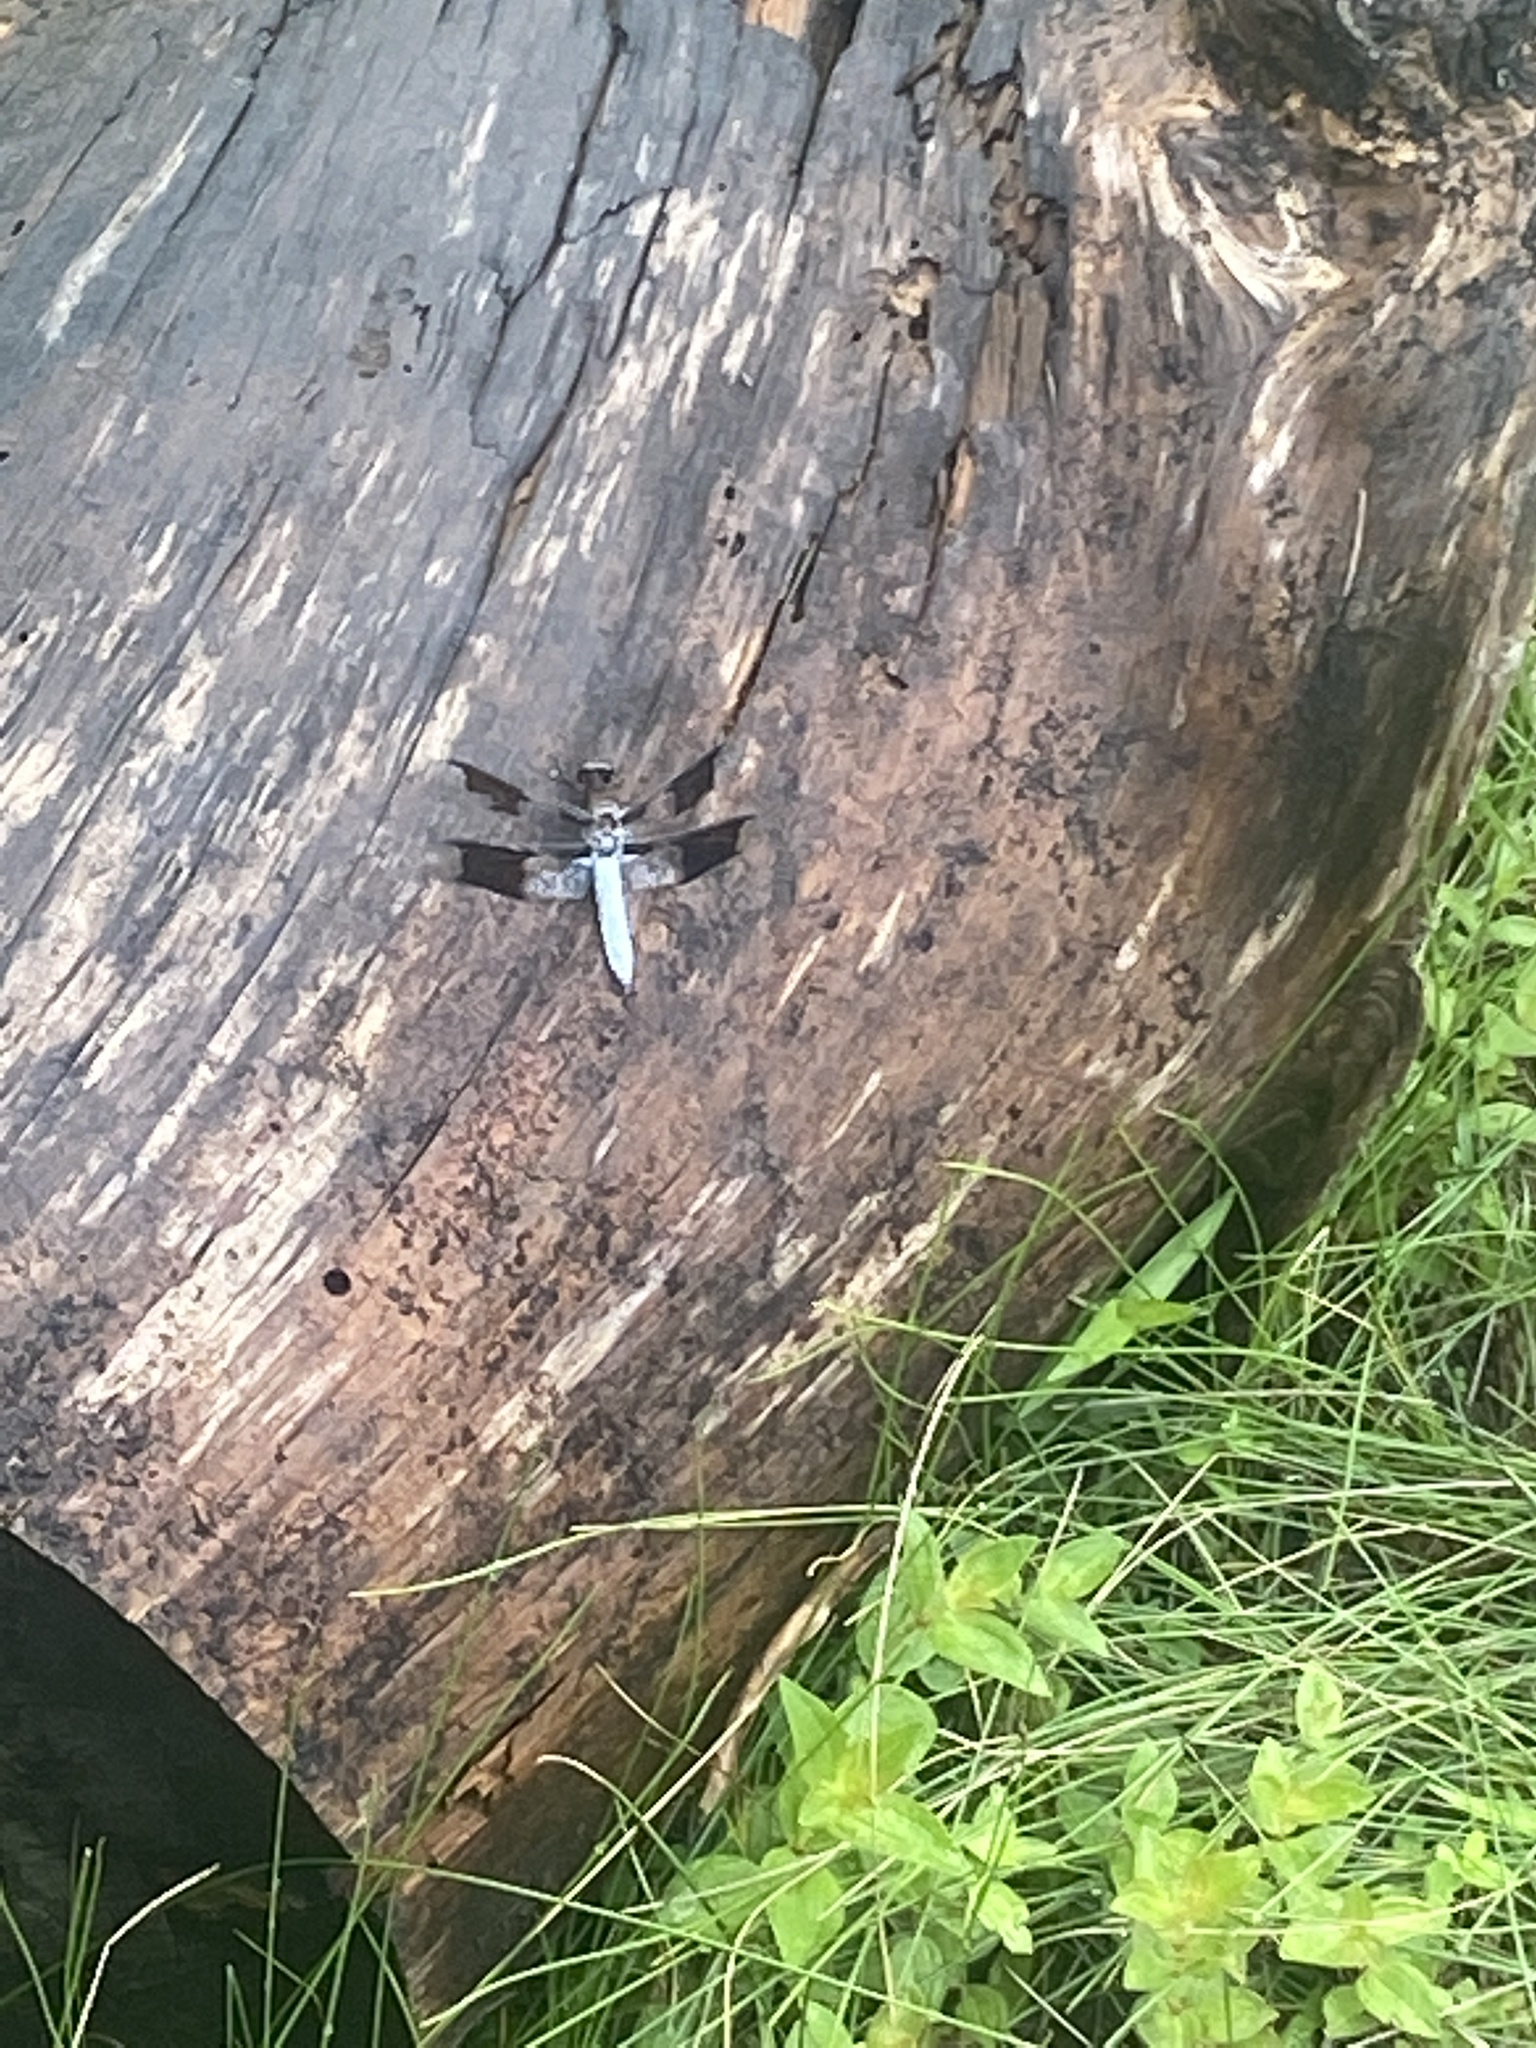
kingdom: Animalia
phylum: Arthropoda
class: Insecta
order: Odonata
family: Libellulidae
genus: Plathemis
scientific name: Plathemis lydia
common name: Common whitetail
